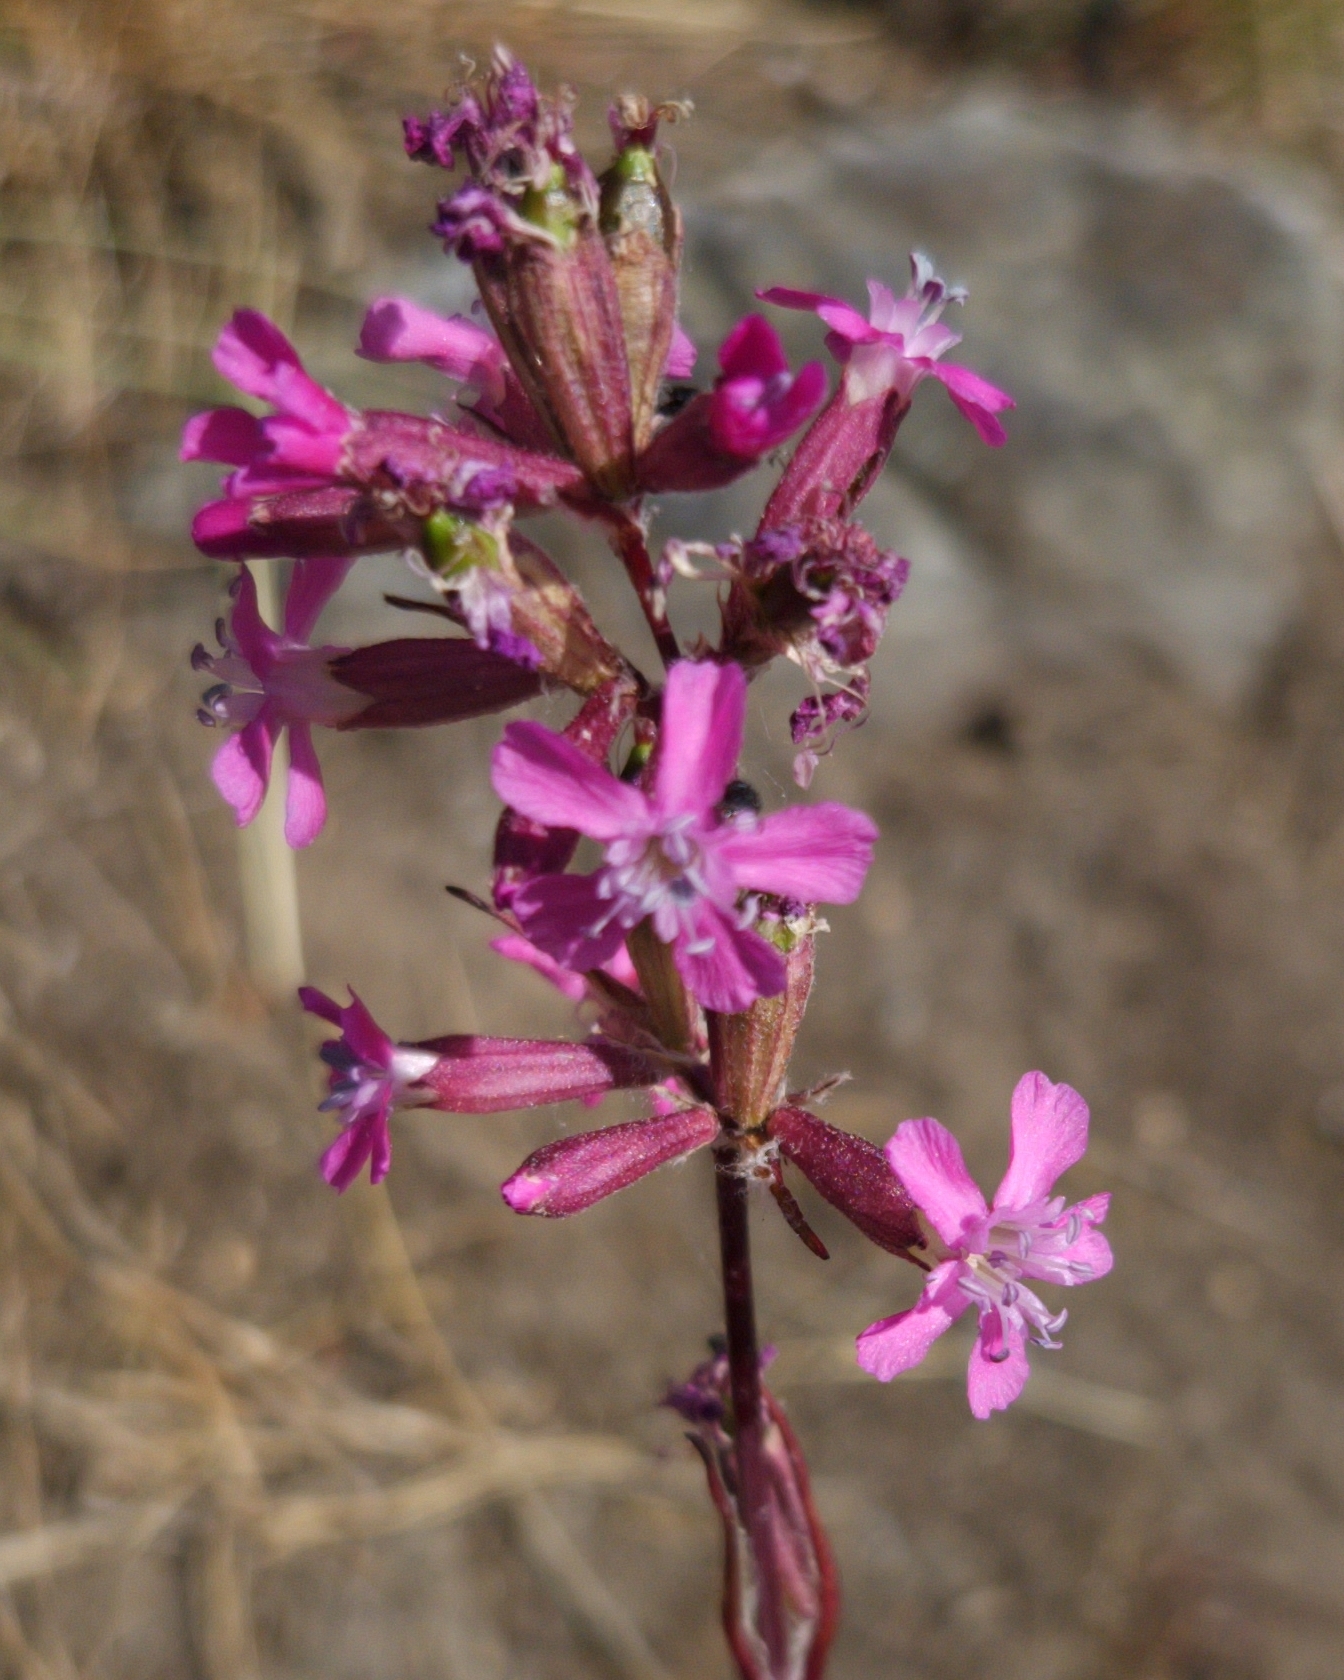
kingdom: Plantae
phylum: Tracheophyta
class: Magnoliopsida
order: Caryophyllales
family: Caryophyllaceae
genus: Viscaria
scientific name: Viscaria vulgaris
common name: Clammy campion
